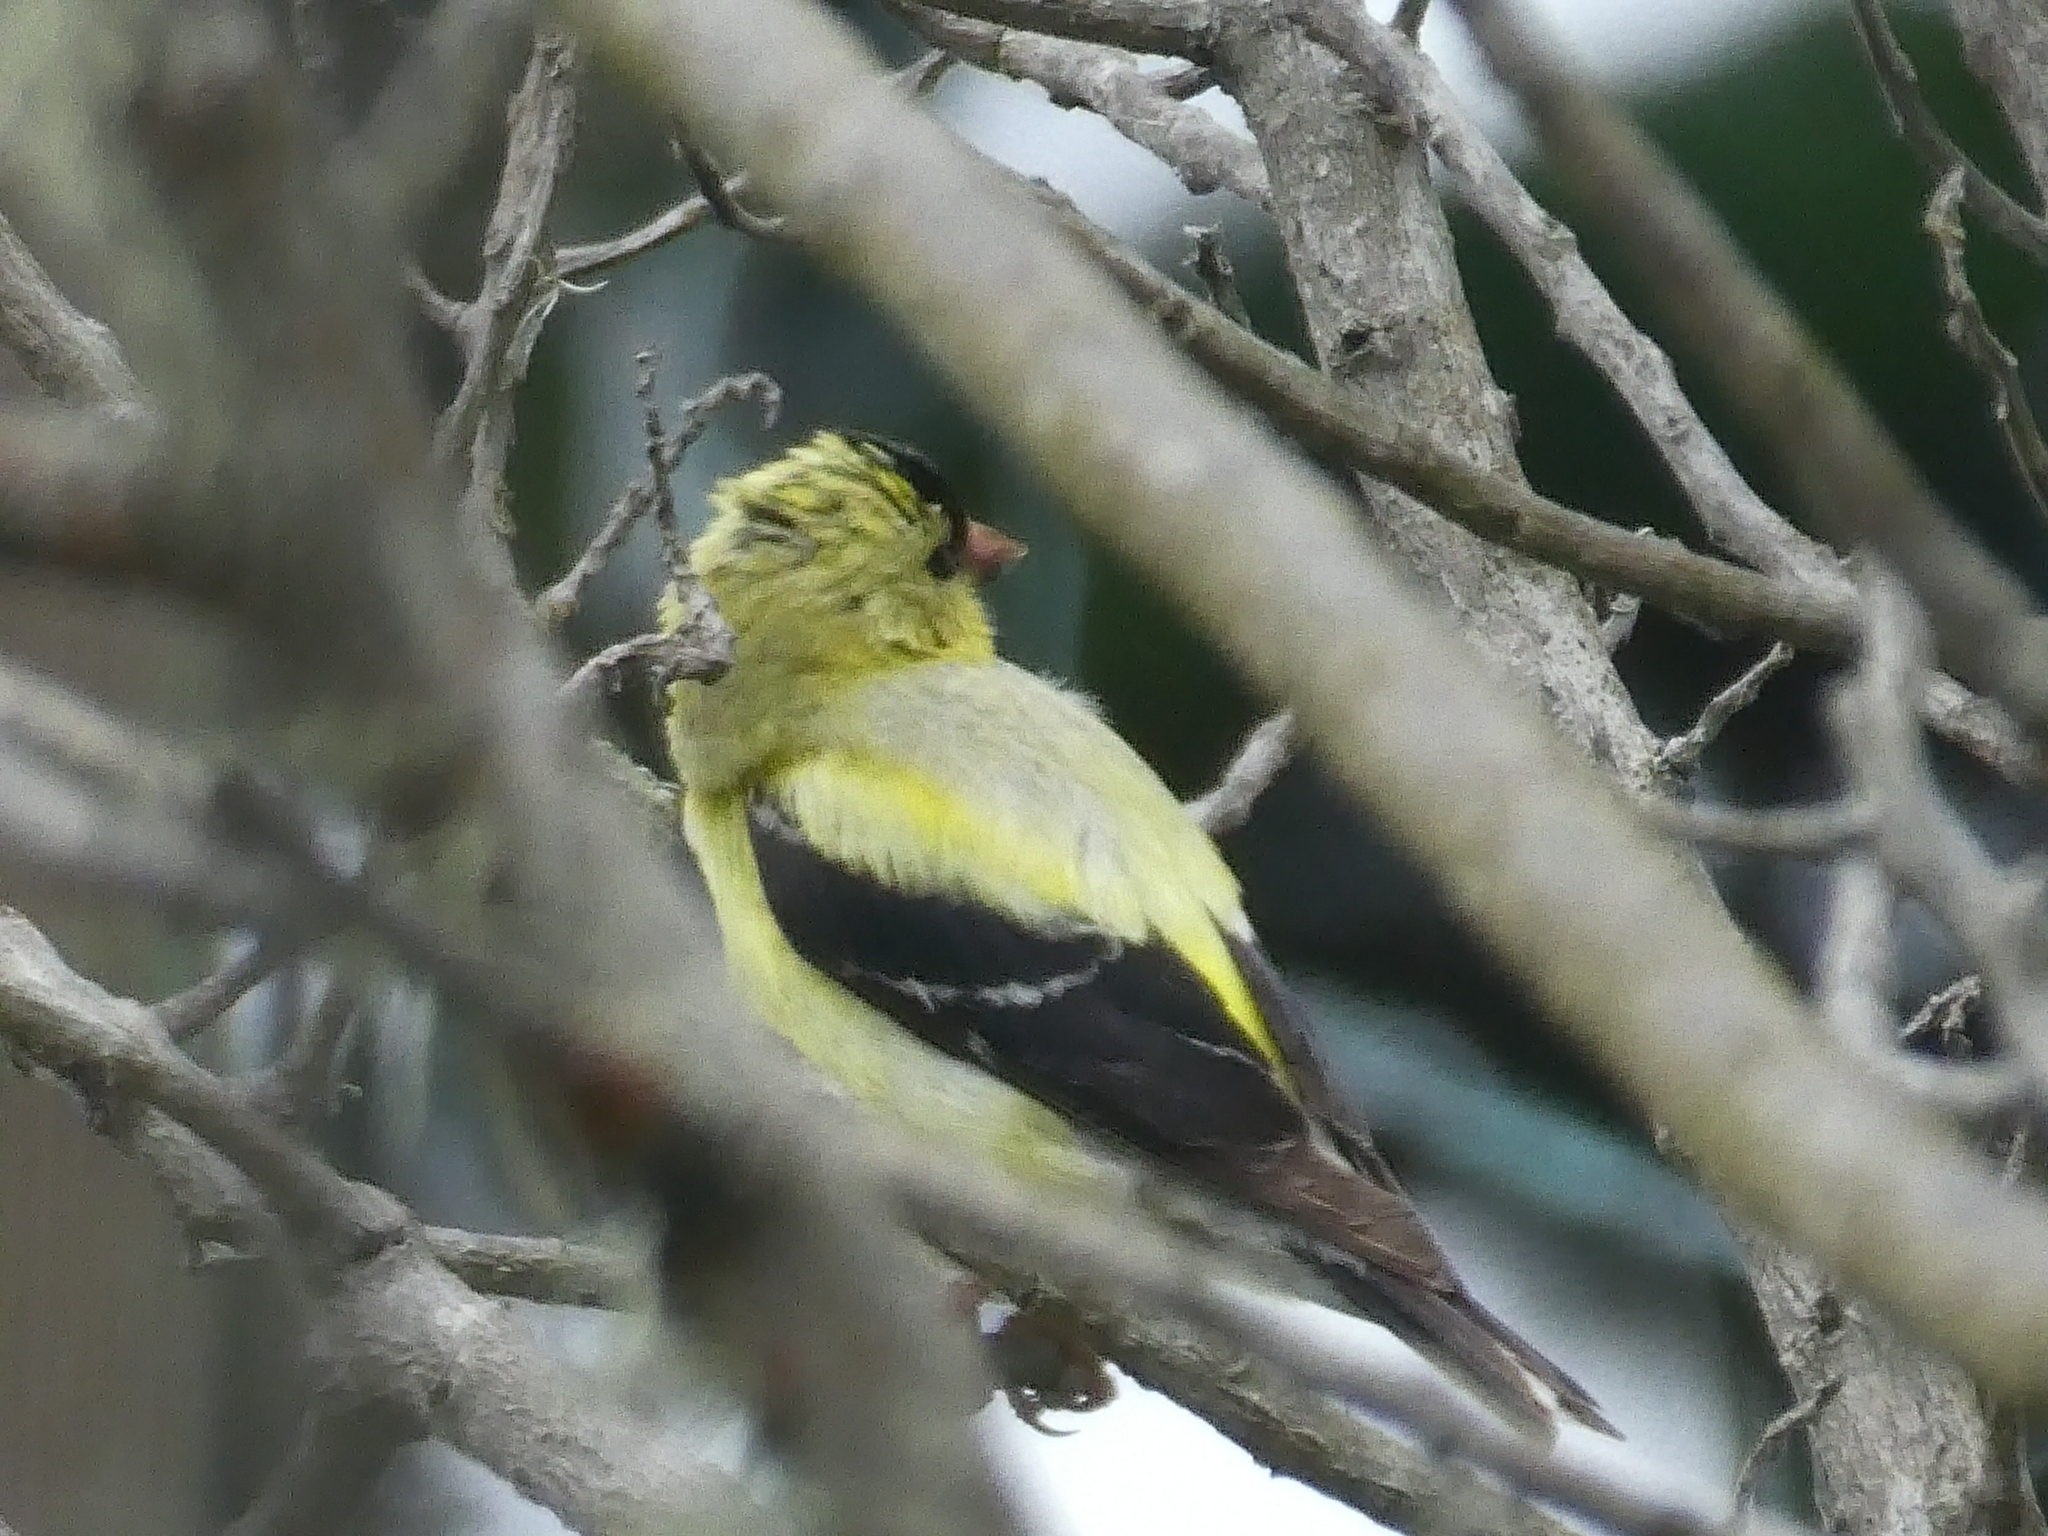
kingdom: Animalia
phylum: Chordata
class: Aves
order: Passeriformes
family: Fringillidae
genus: Spinus
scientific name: Spinus tristis
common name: American goldfinch
